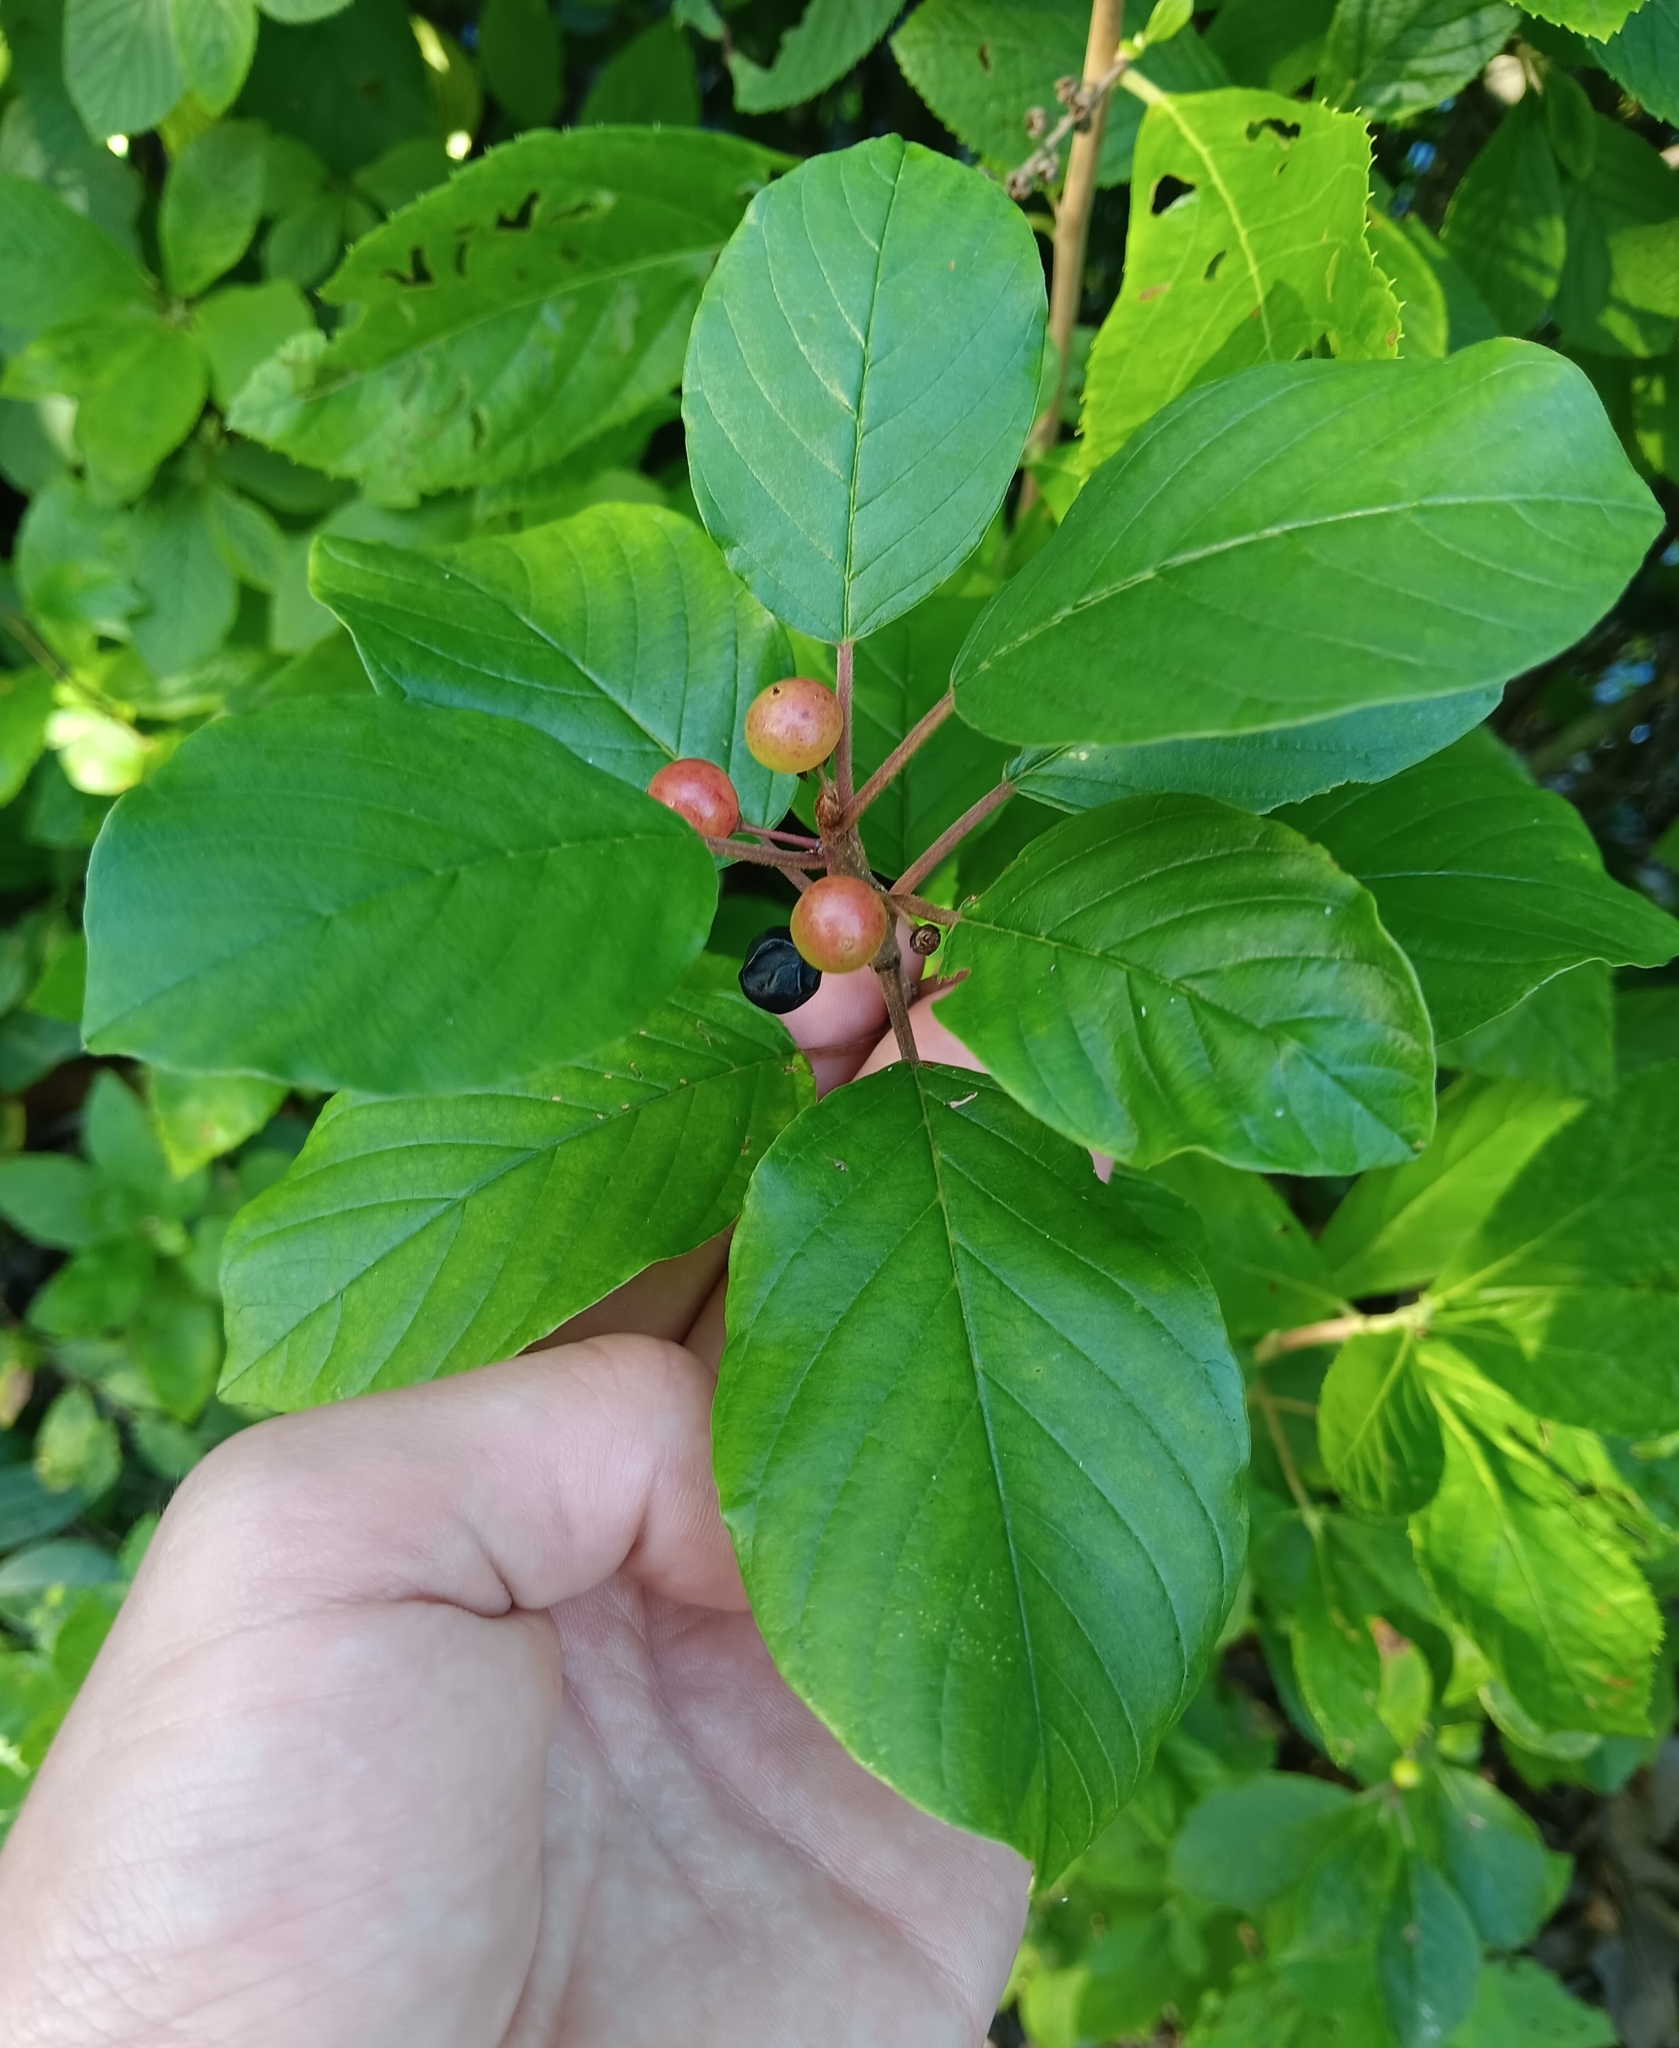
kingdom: Plantae
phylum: Tracheophyta
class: Magnoliopsida
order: Rosales
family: Rhamnaceae
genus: Frangula
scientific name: Frangula alnus
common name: Alder buckthorn
